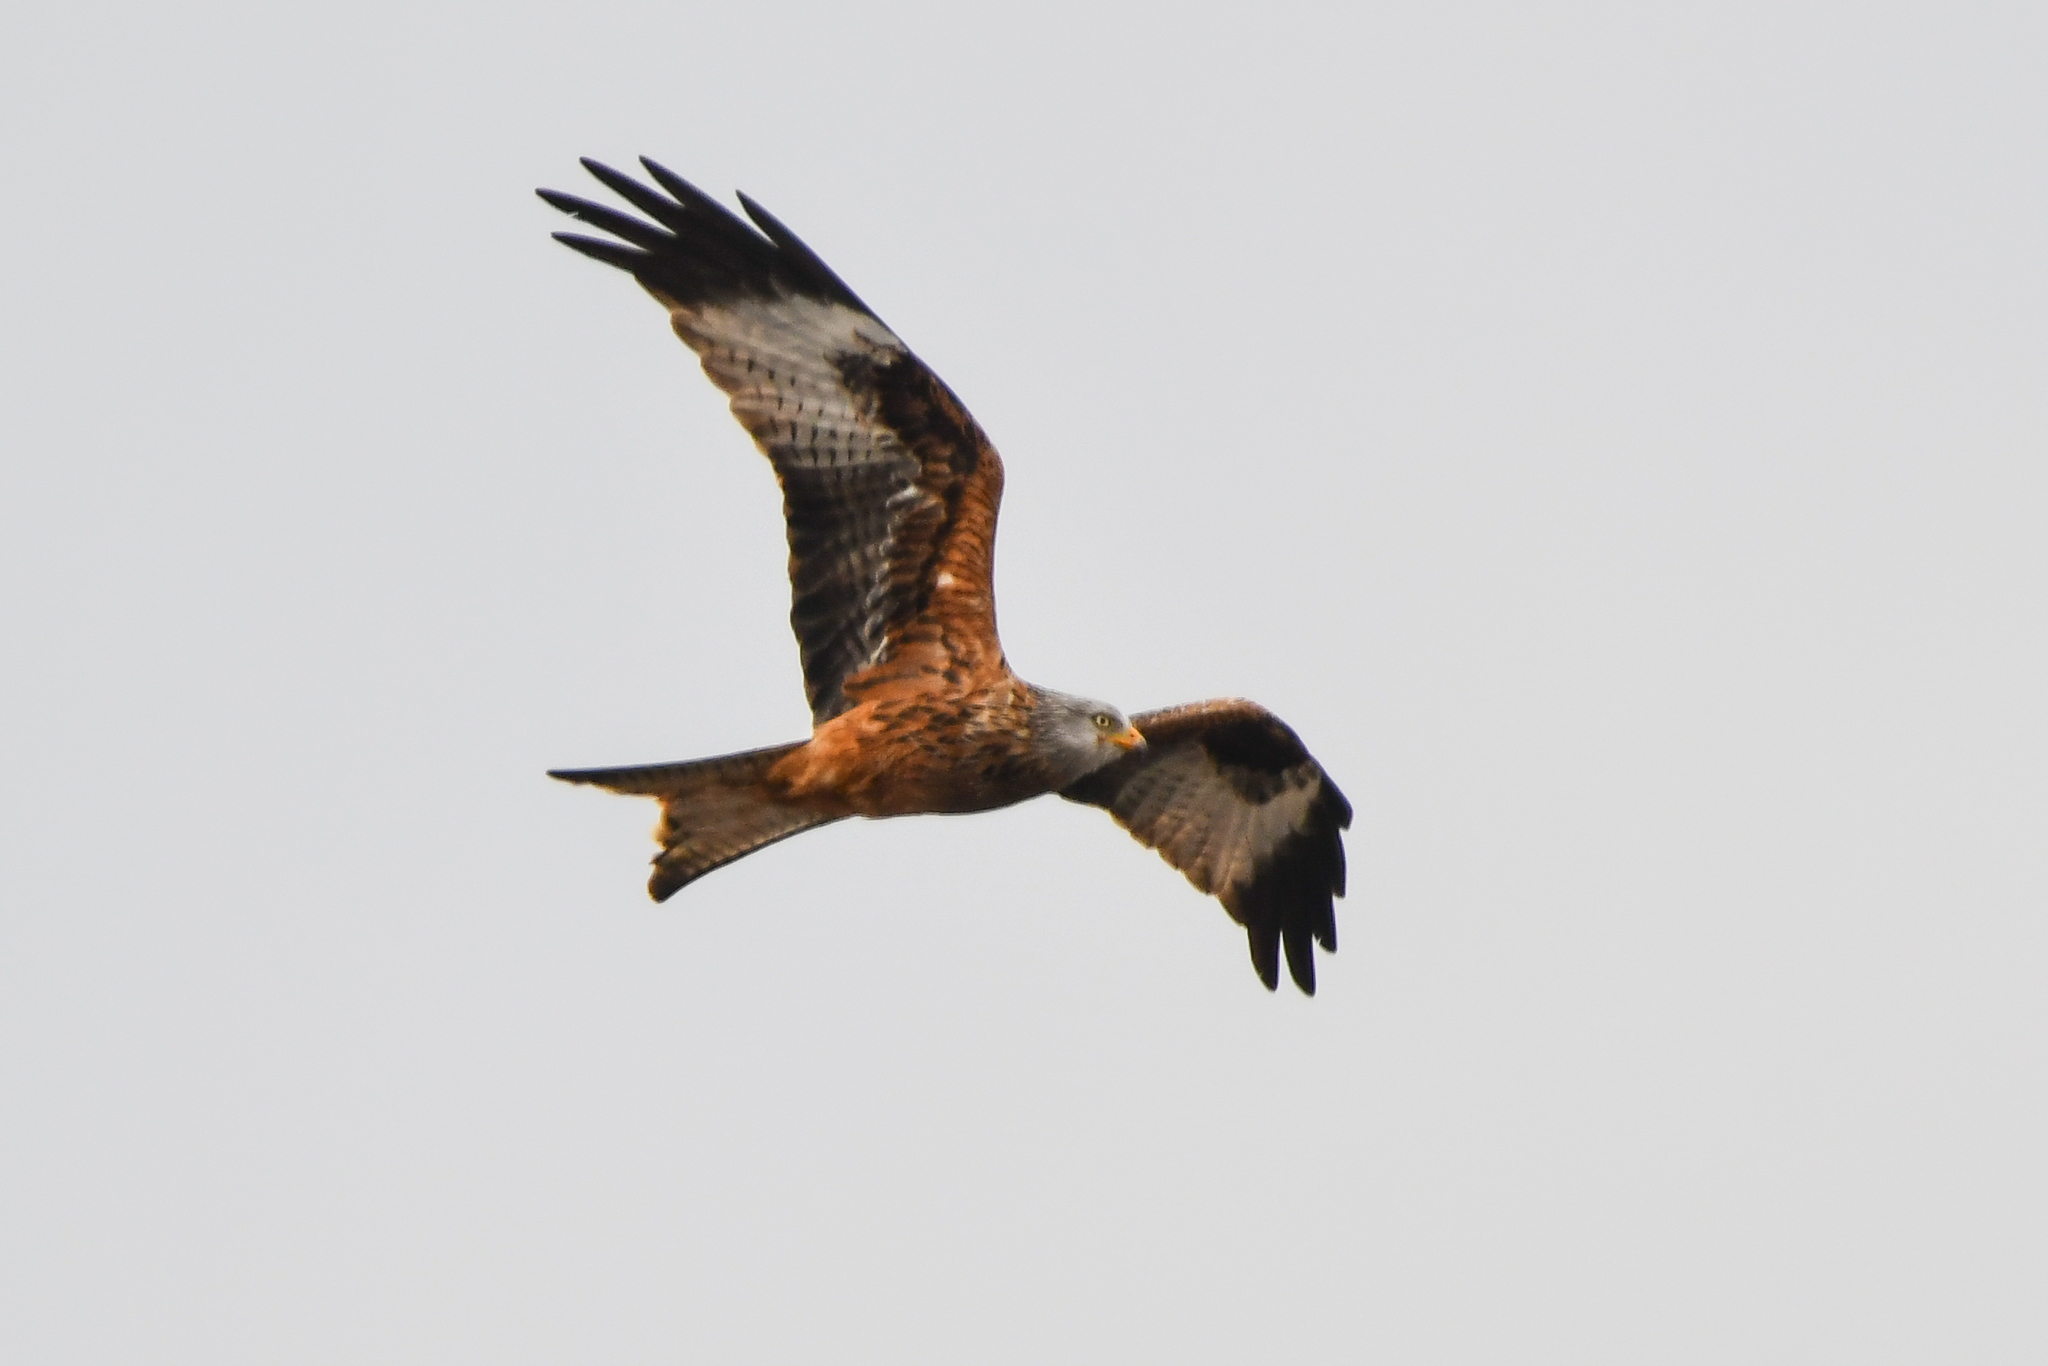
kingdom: Animalia
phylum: Chordata
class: Aves
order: Accipitriformes
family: Accipitridae
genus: Milvus
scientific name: Milvus milvus
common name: Red kite
